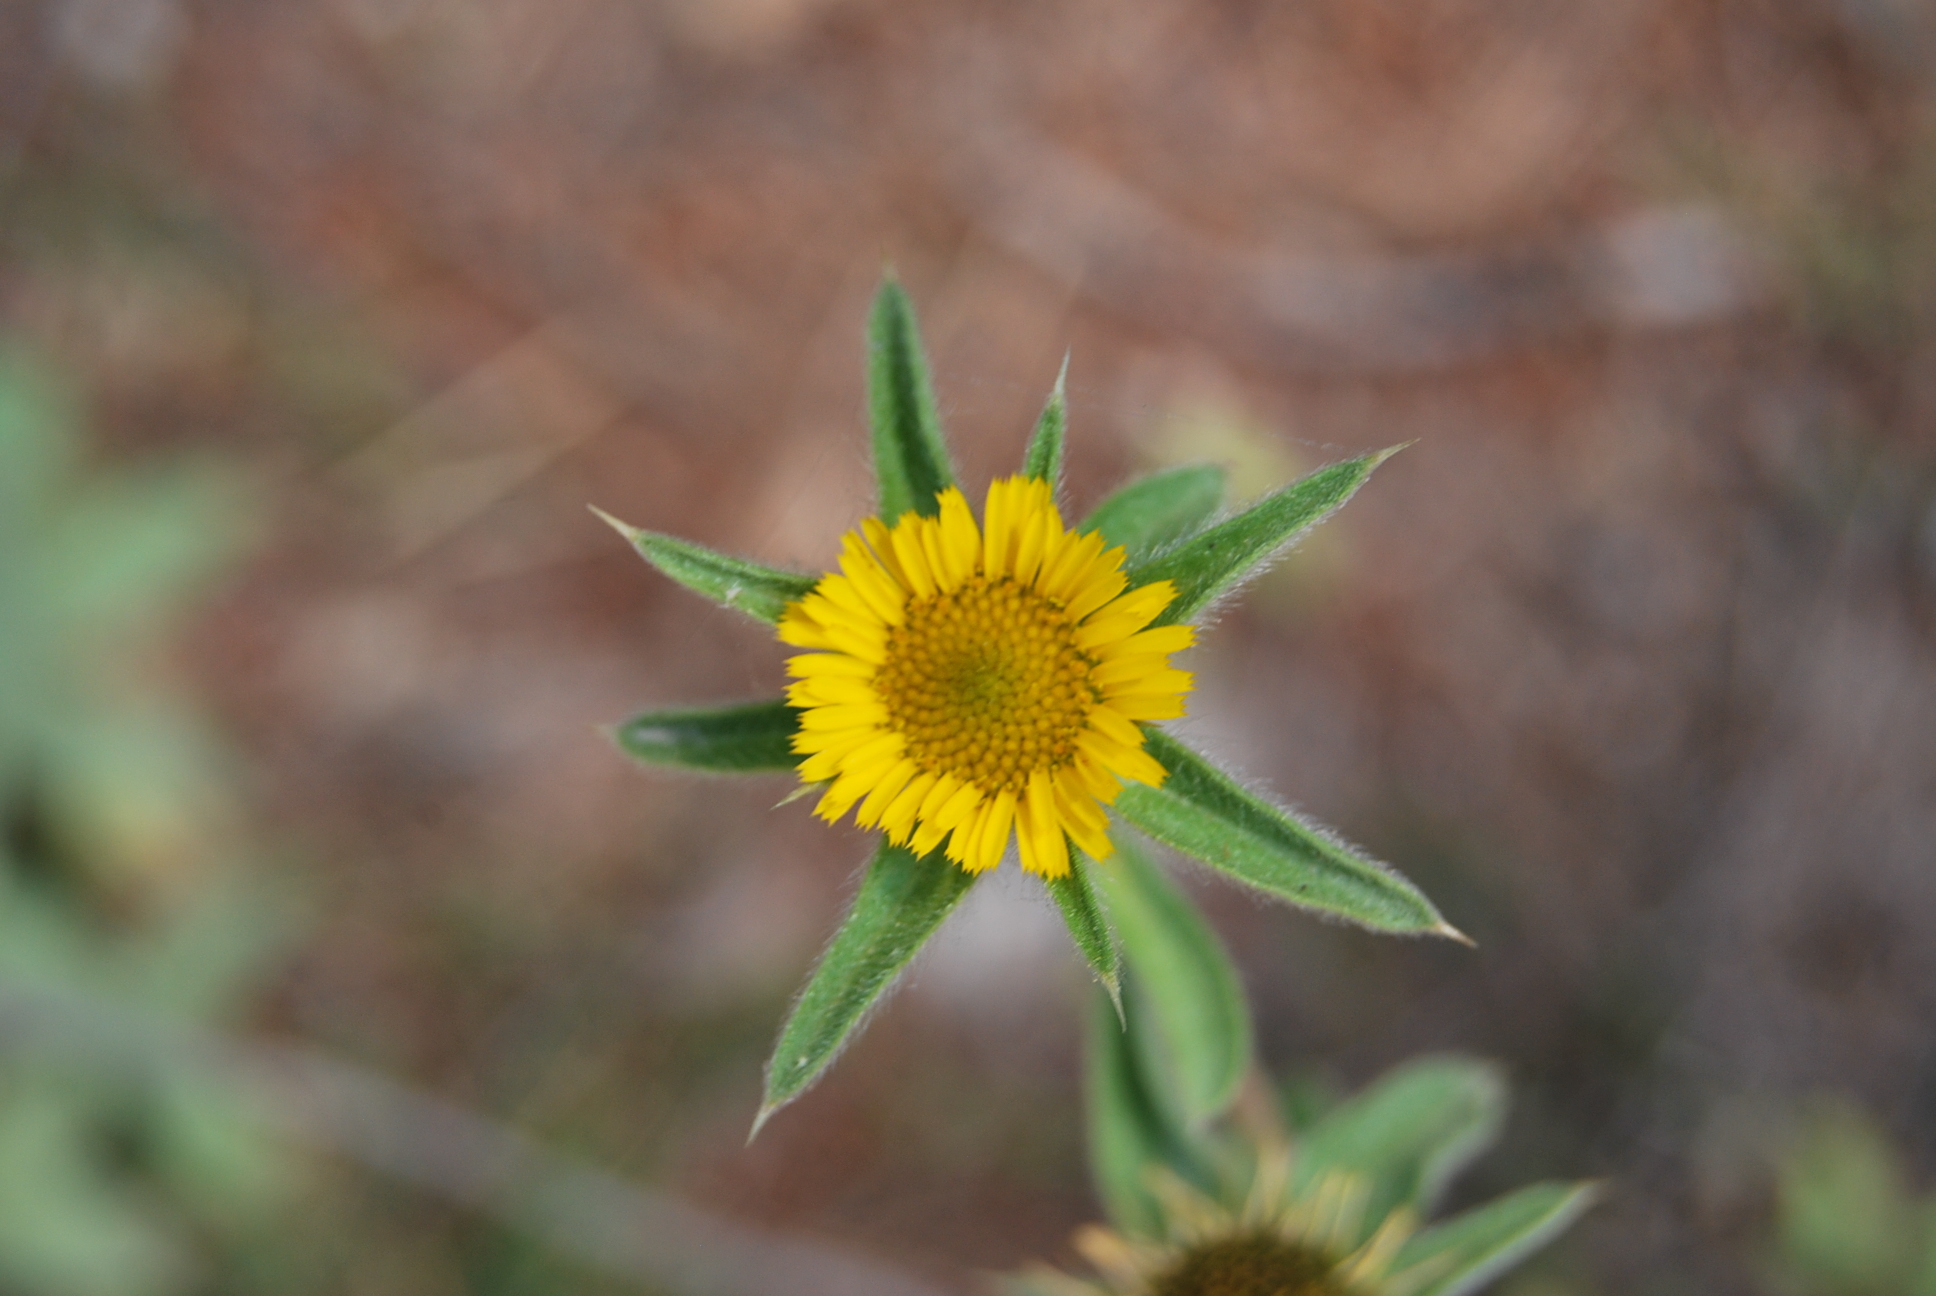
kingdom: Plantae
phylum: Tracheophyta
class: Magnoliopsida
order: Asterales
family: Asteraceae
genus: Pallenis
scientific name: Pallenis spinosa
